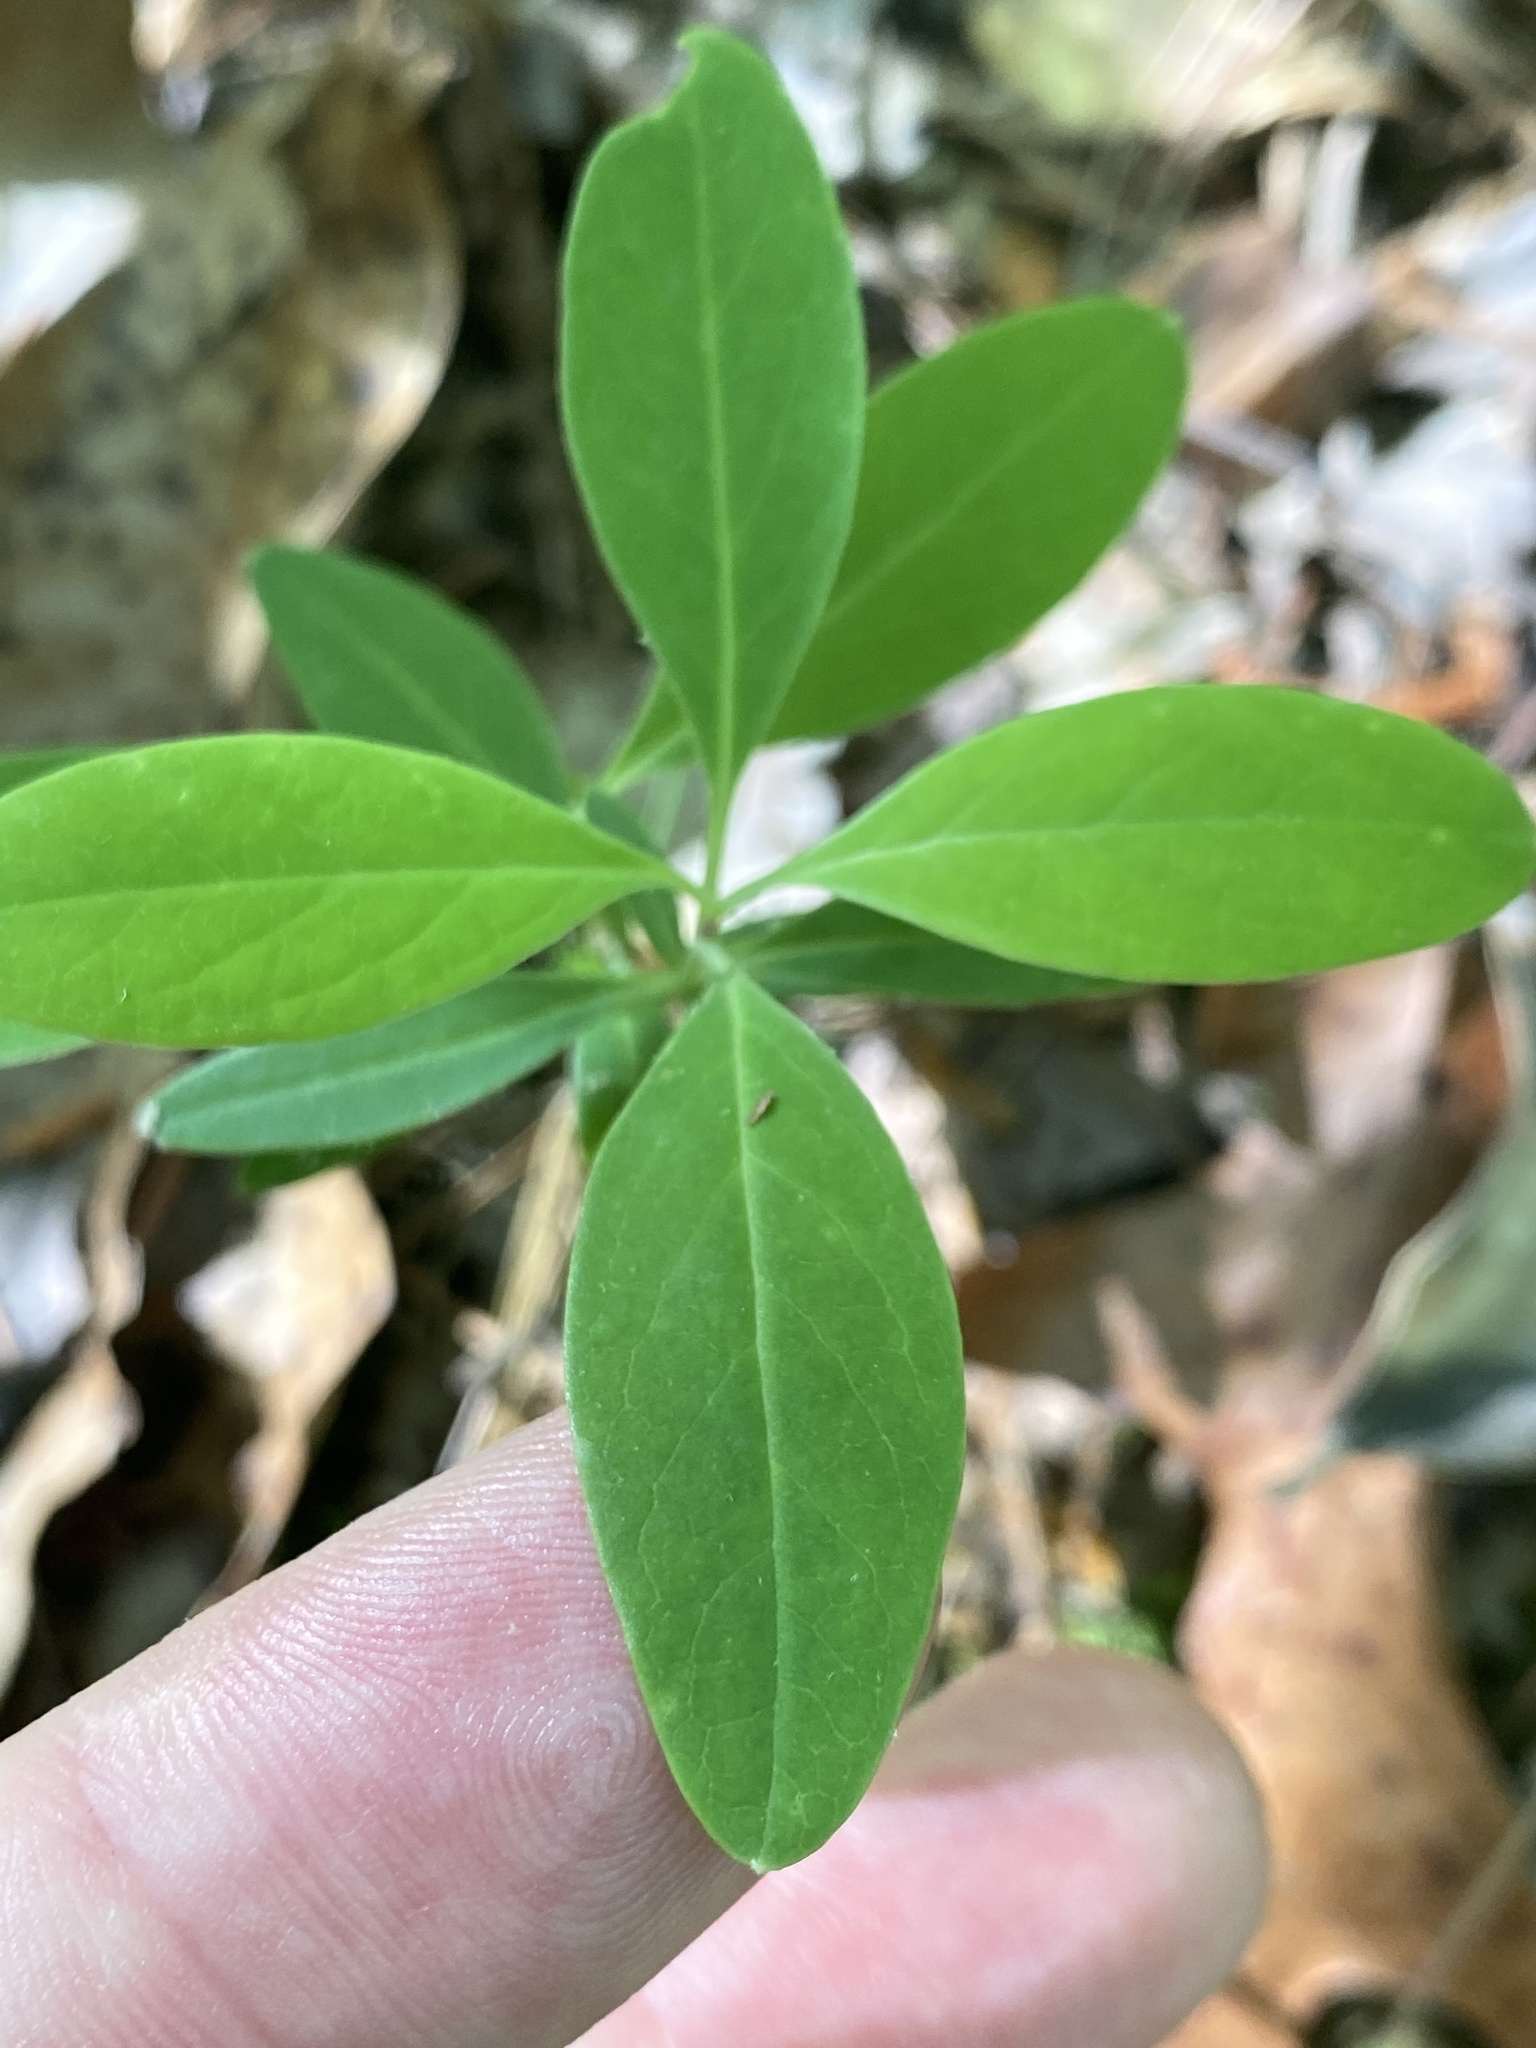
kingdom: Plantae
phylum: Tracheophyta
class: Magnoliopsida
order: Dipsacales
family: Caprifoliaceae
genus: Lonicera
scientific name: Lonicera sempervirens
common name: Coral honeysuckle
